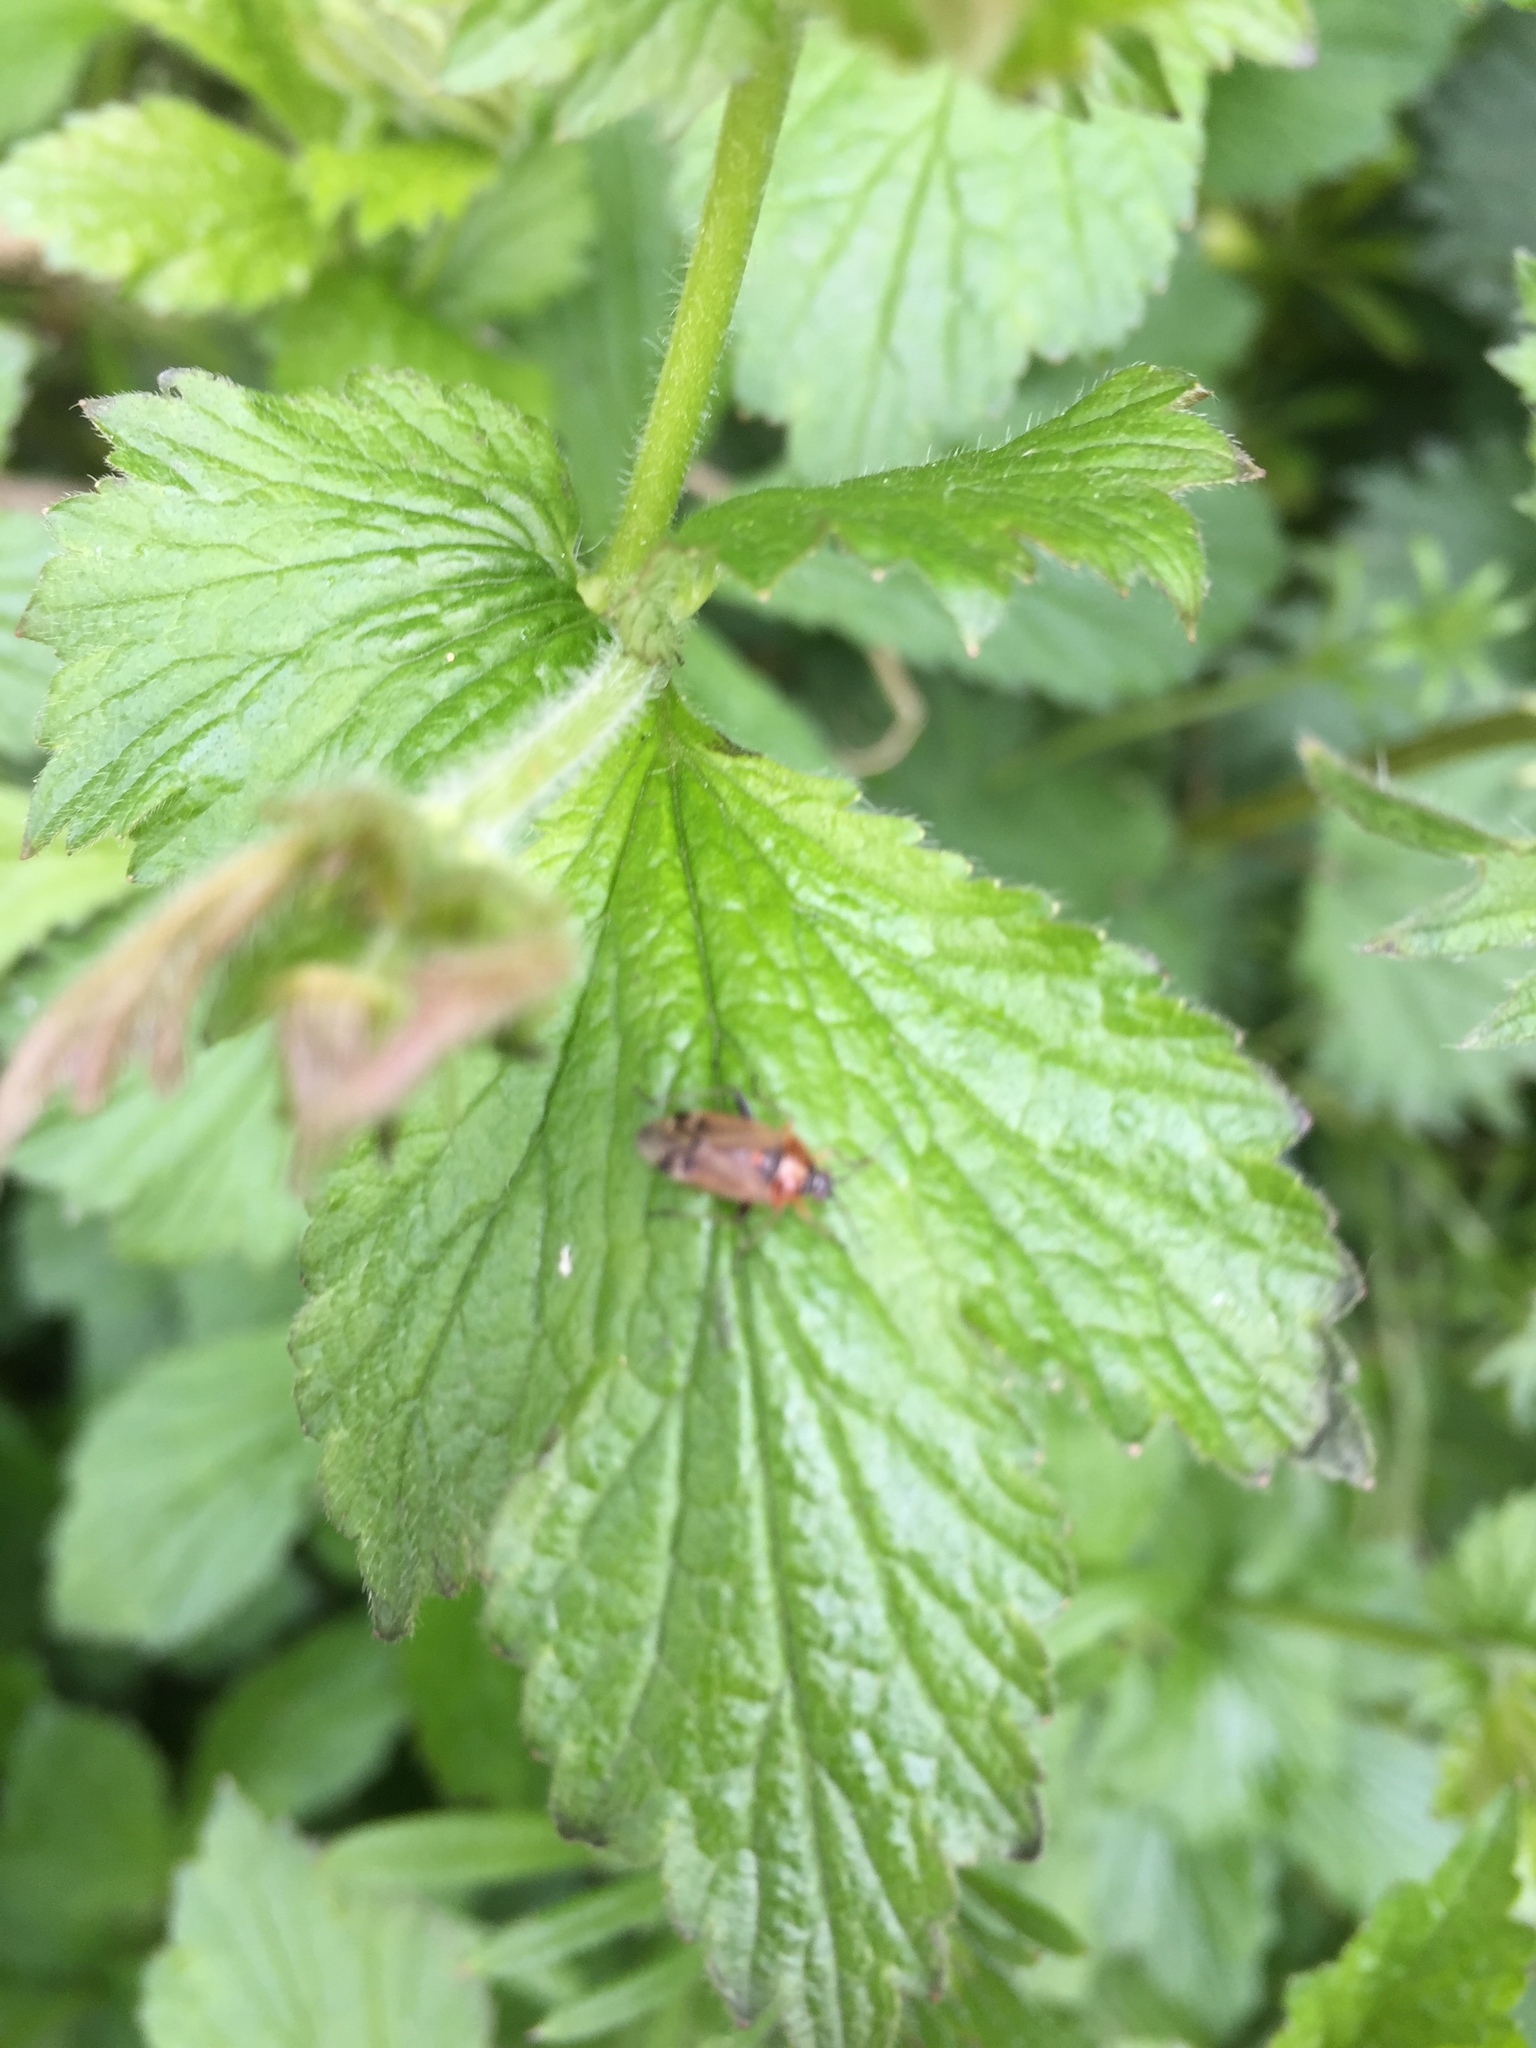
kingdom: Animalia
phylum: Arthropoda
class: Insecta
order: Hemiptera
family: Miridae
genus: Harpocera
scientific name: Harpocera thoracica
